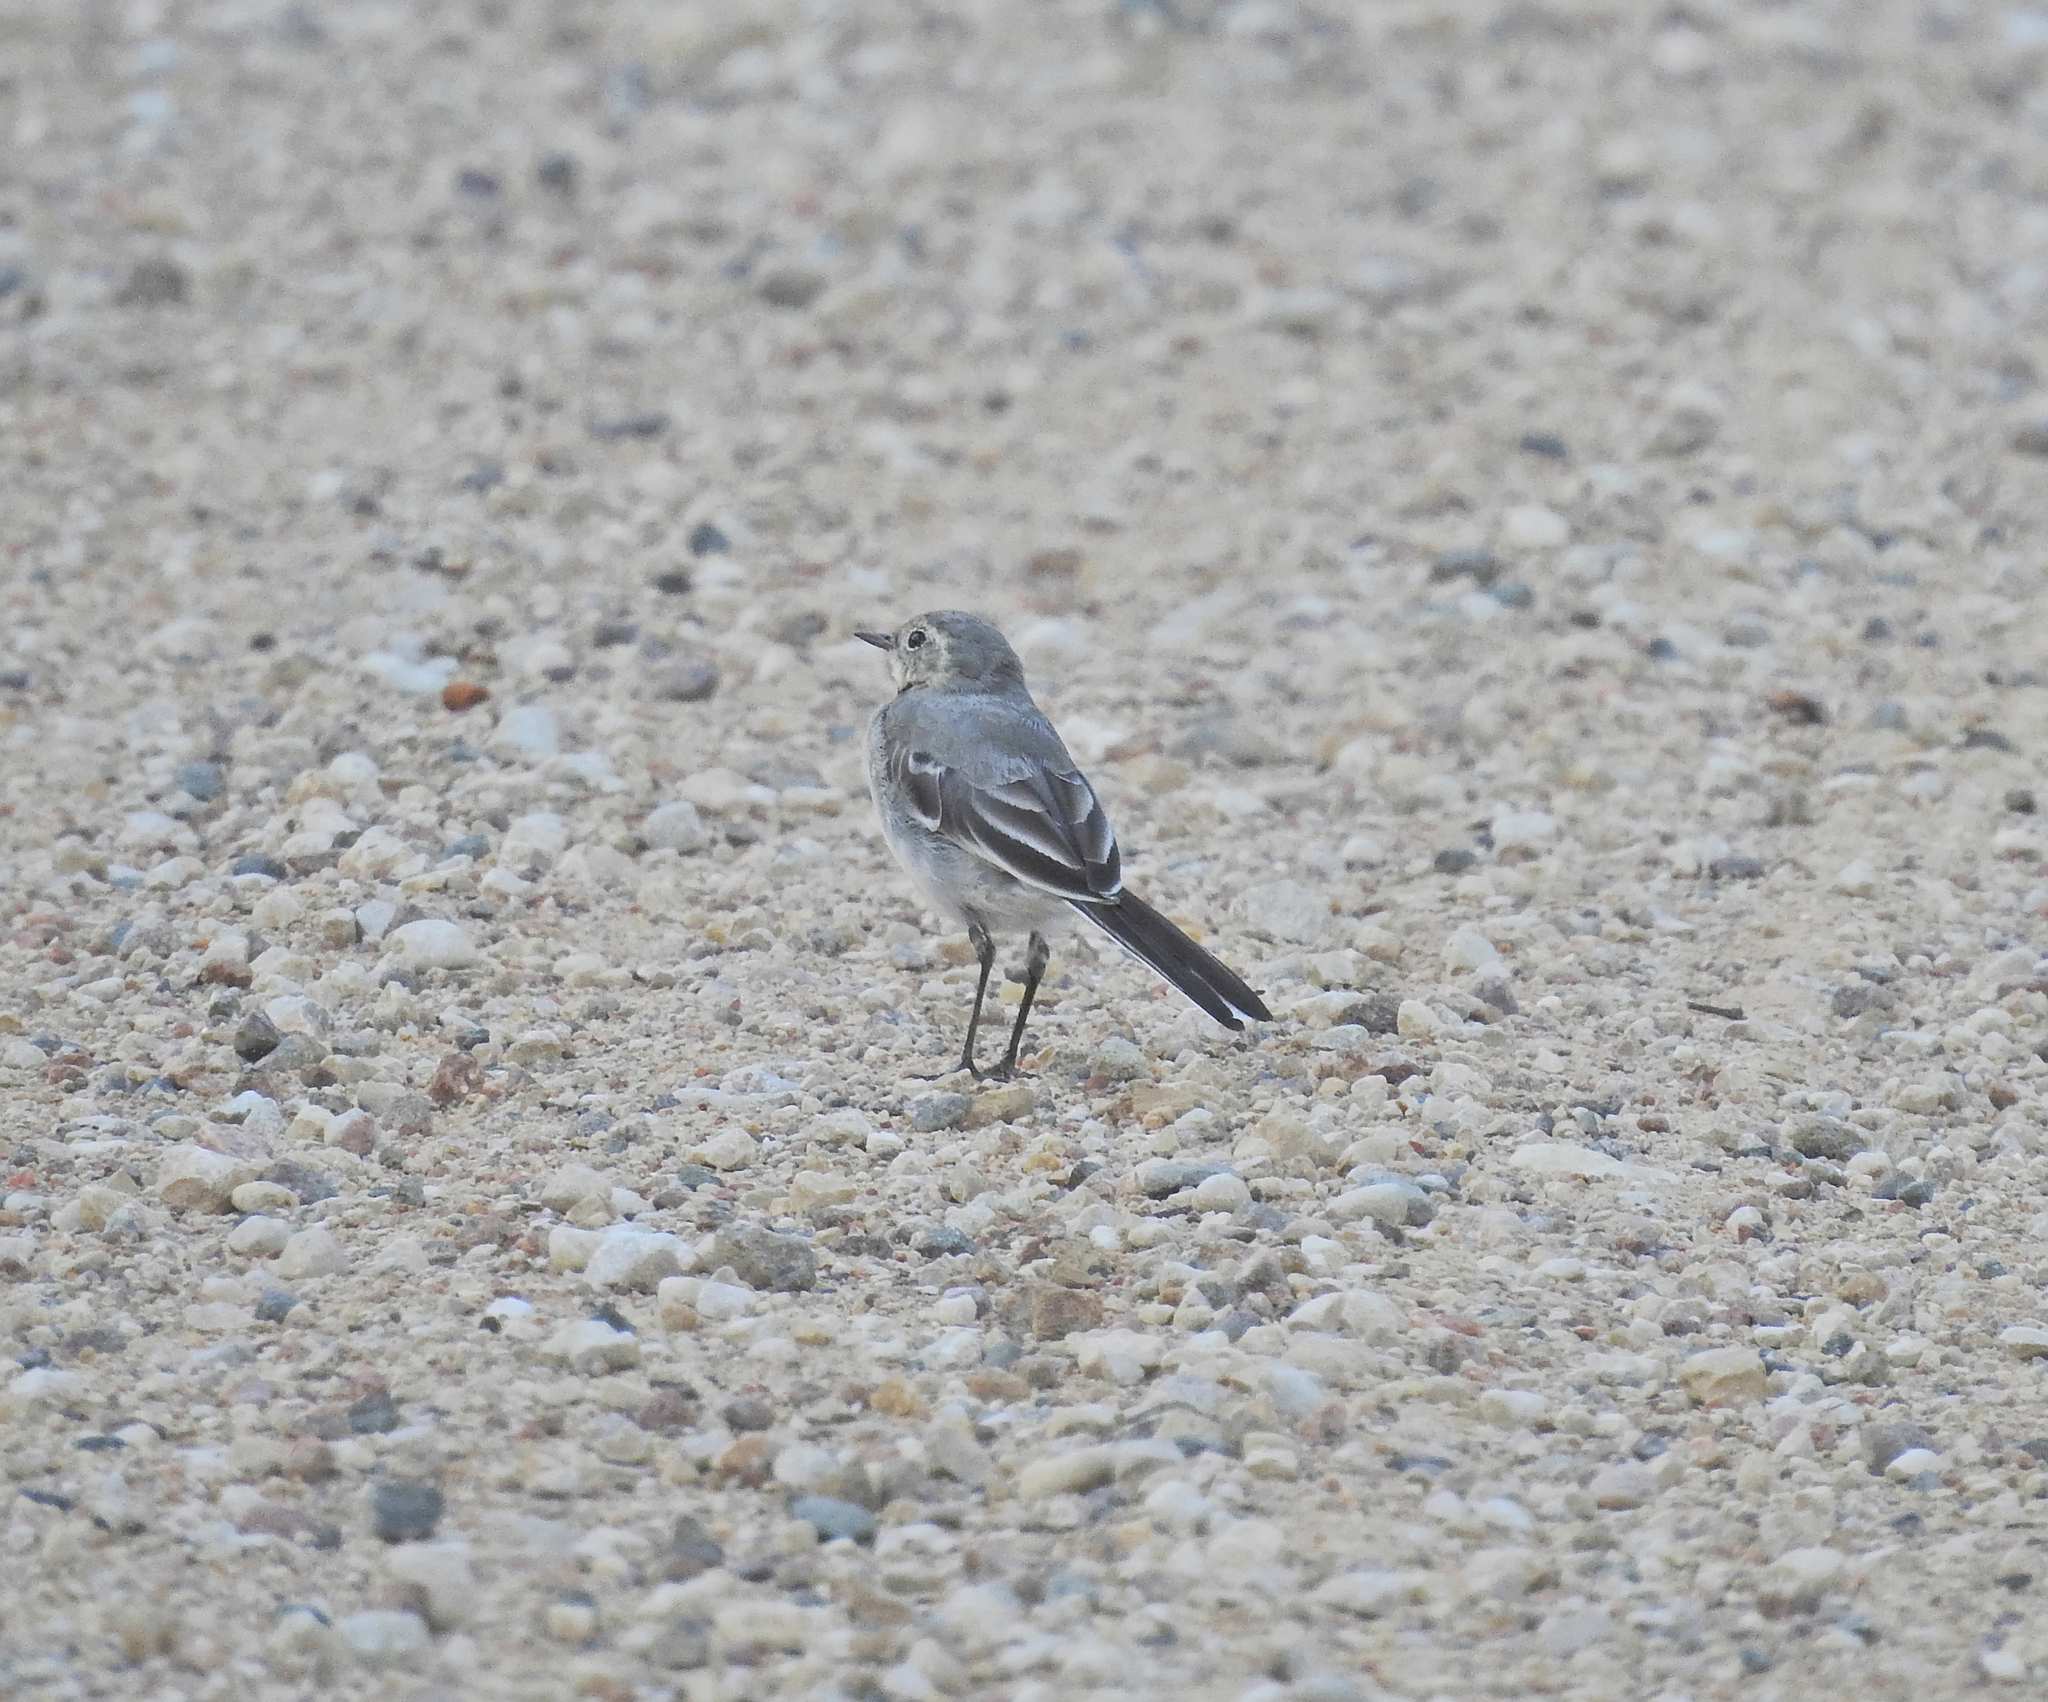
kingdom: Animalia
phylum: Chordata
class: Aves
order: Passeriformes
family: Motacillidae
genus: Motacilla
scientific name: Motacilla alba
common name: White wagtail
